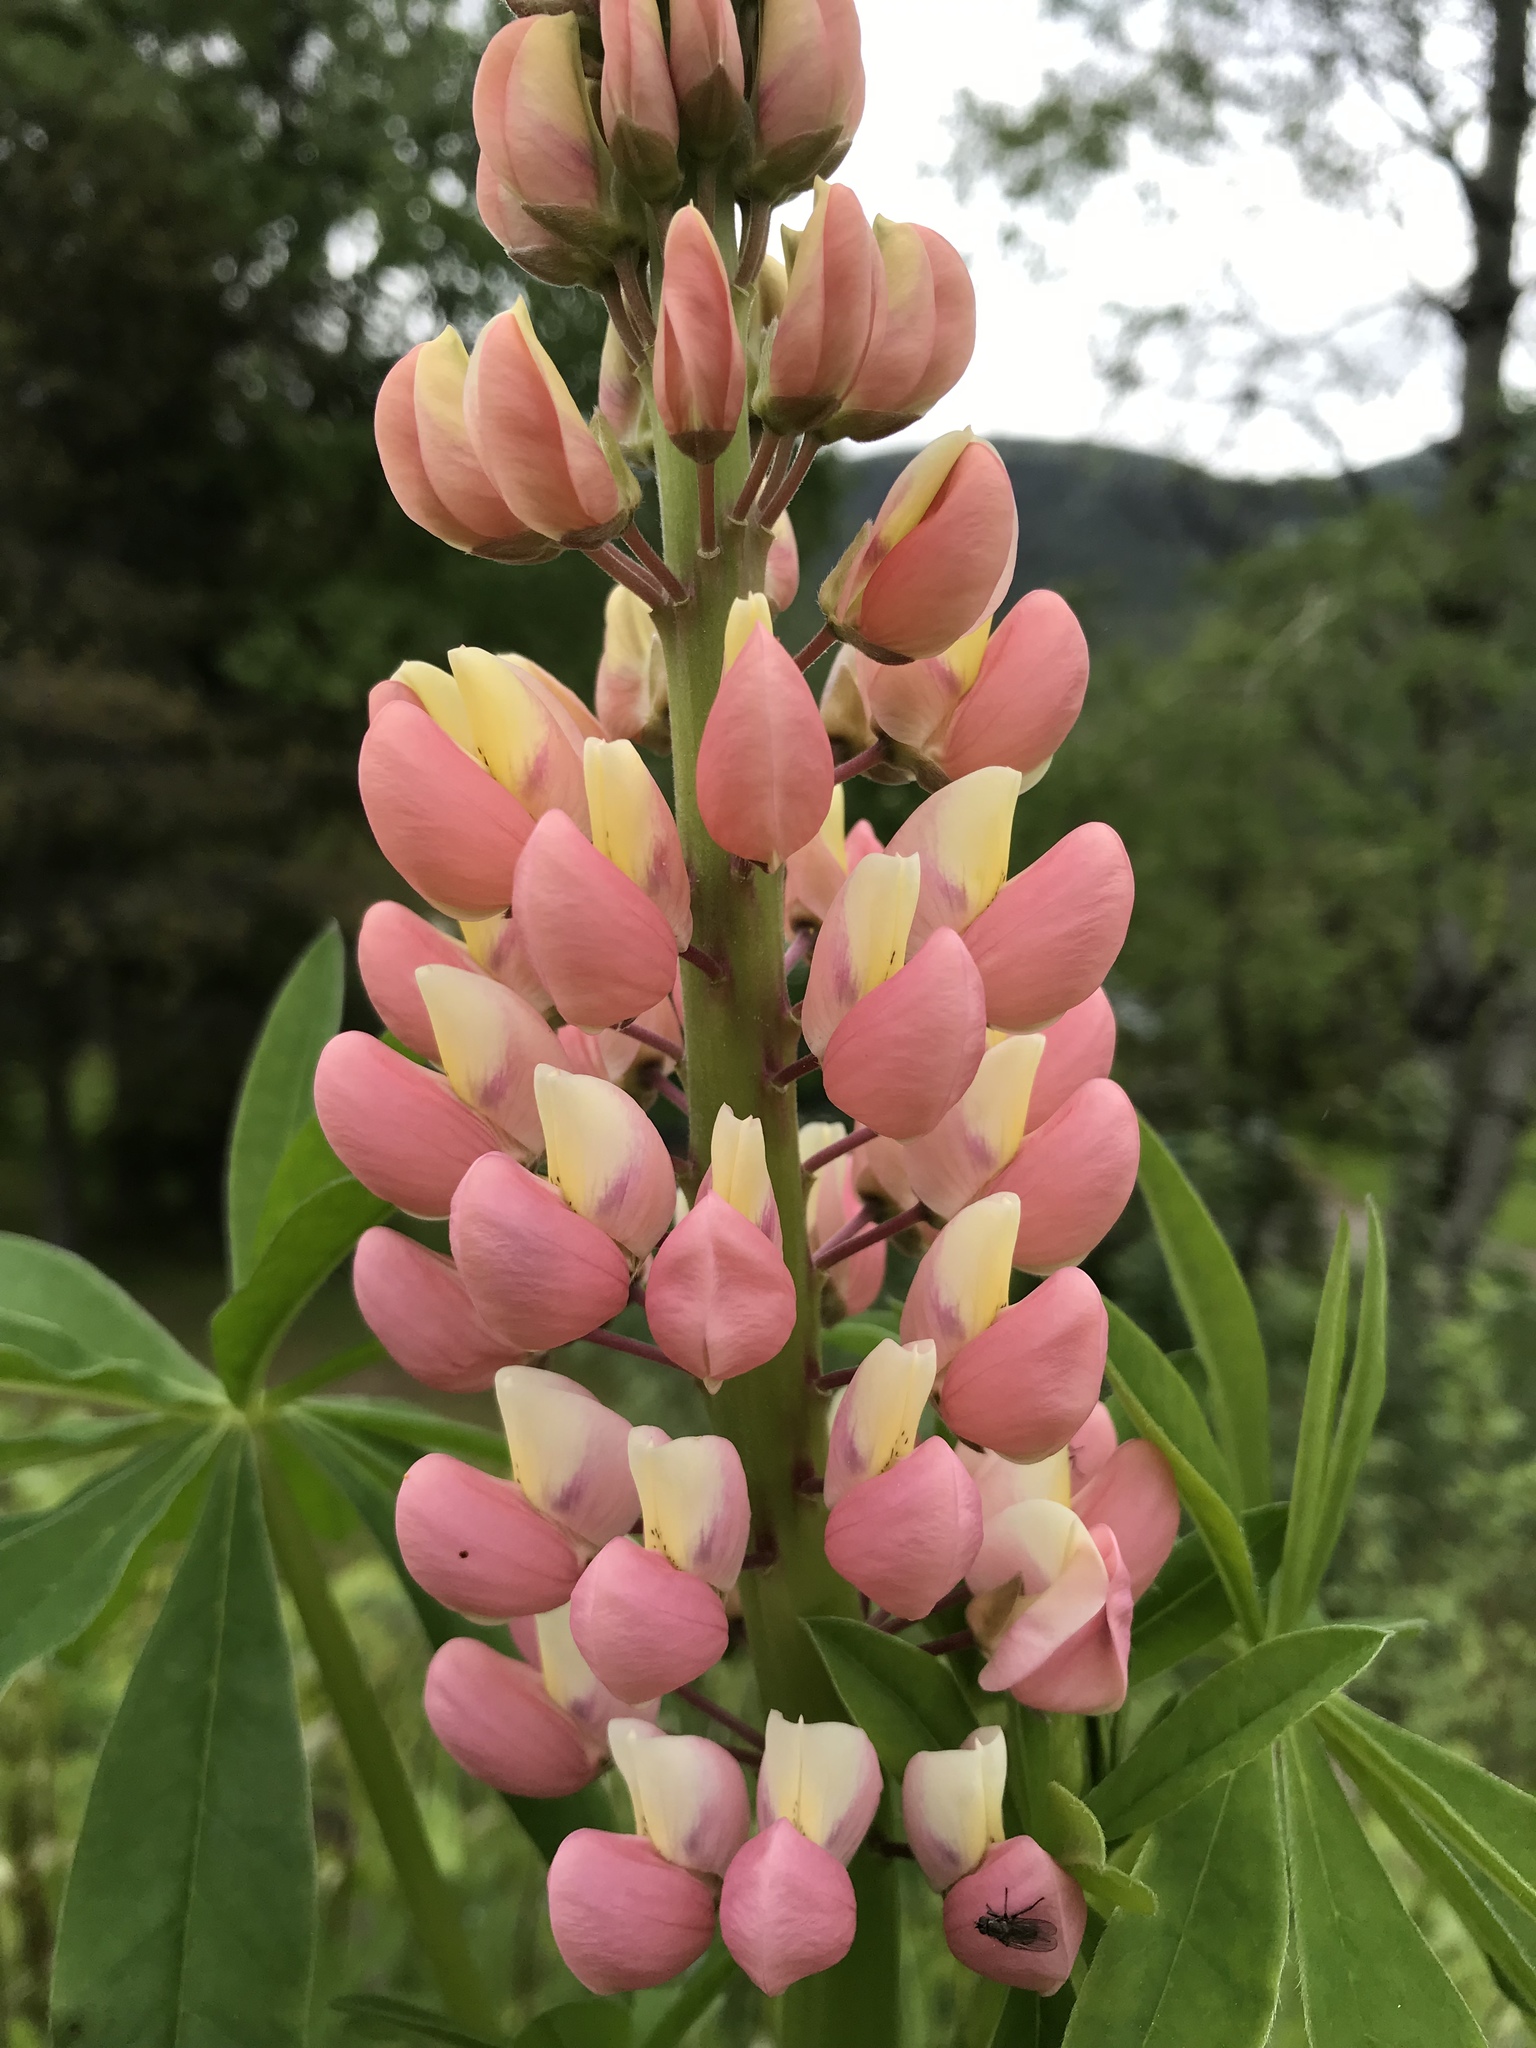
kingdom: Plantae
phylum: Tracheophyta
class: Magnoliopsida
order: Fabales
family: Fabaceae
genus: Lupinus
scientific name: Lupinus polyphyllus
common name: Garden lupin
